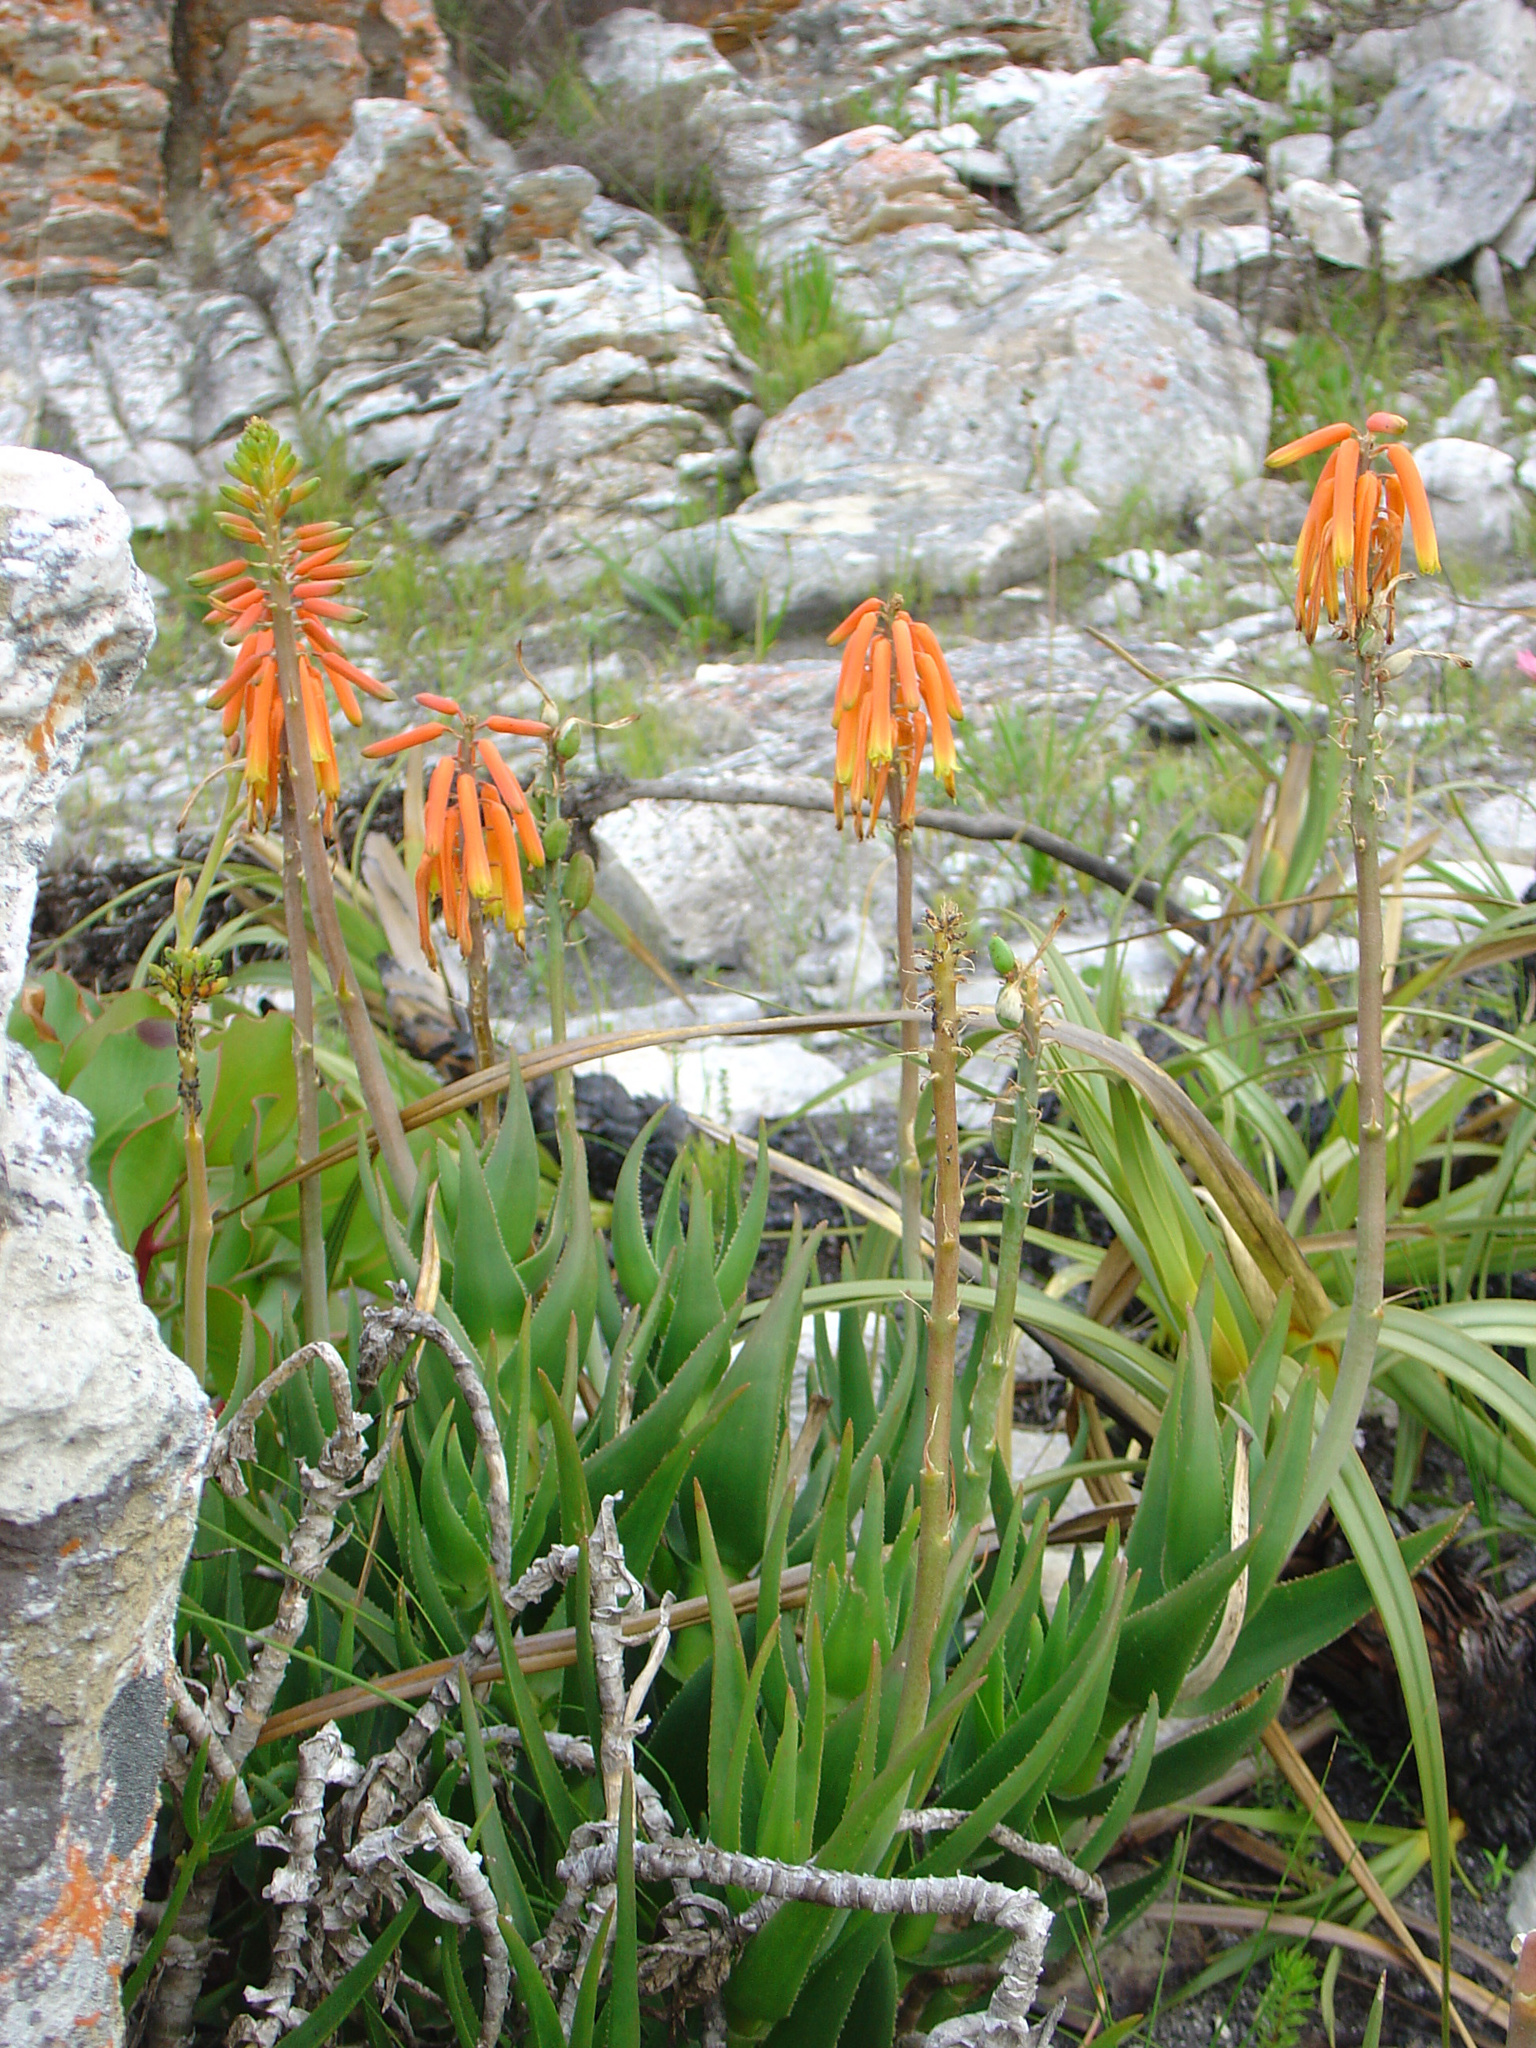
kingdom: Plantae
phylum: Tracheophyta
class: Liliopsida
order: Asparagales
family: Asphodelaceae
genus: Aloiampelos
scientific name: Aloiampelos juddii
